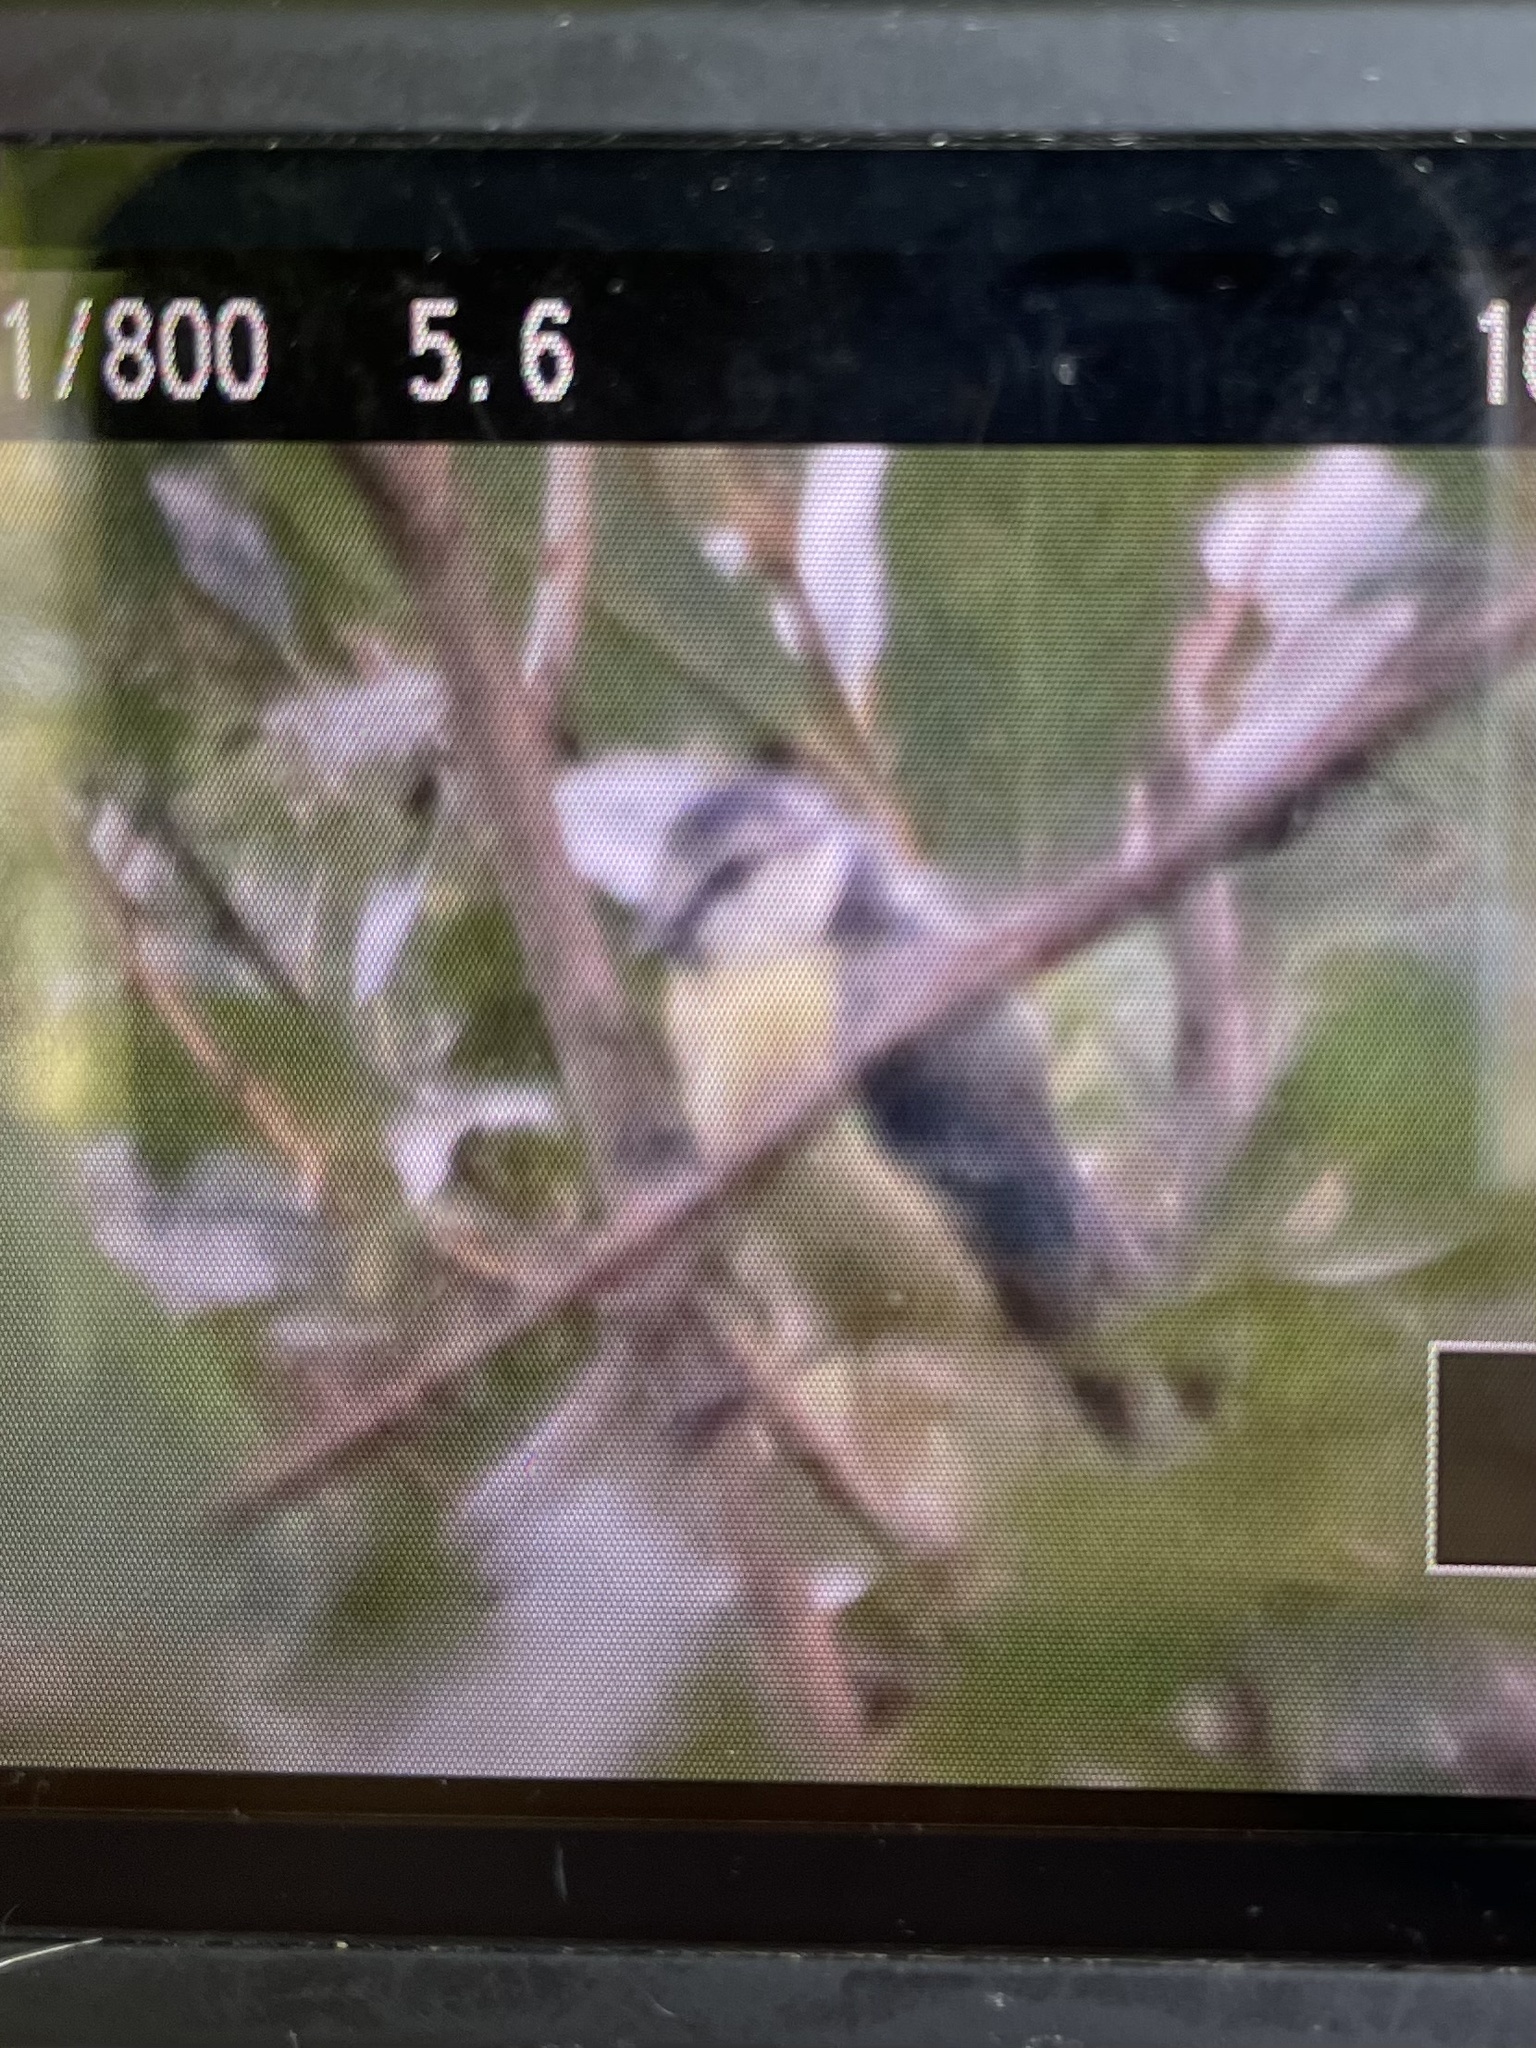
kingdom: Animalia
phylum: Chordata
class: Aves
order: Passeriformes
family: Paridae
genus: Cyanistes
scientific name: Cyanistes caeruleus
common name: Eurasian blue tit
